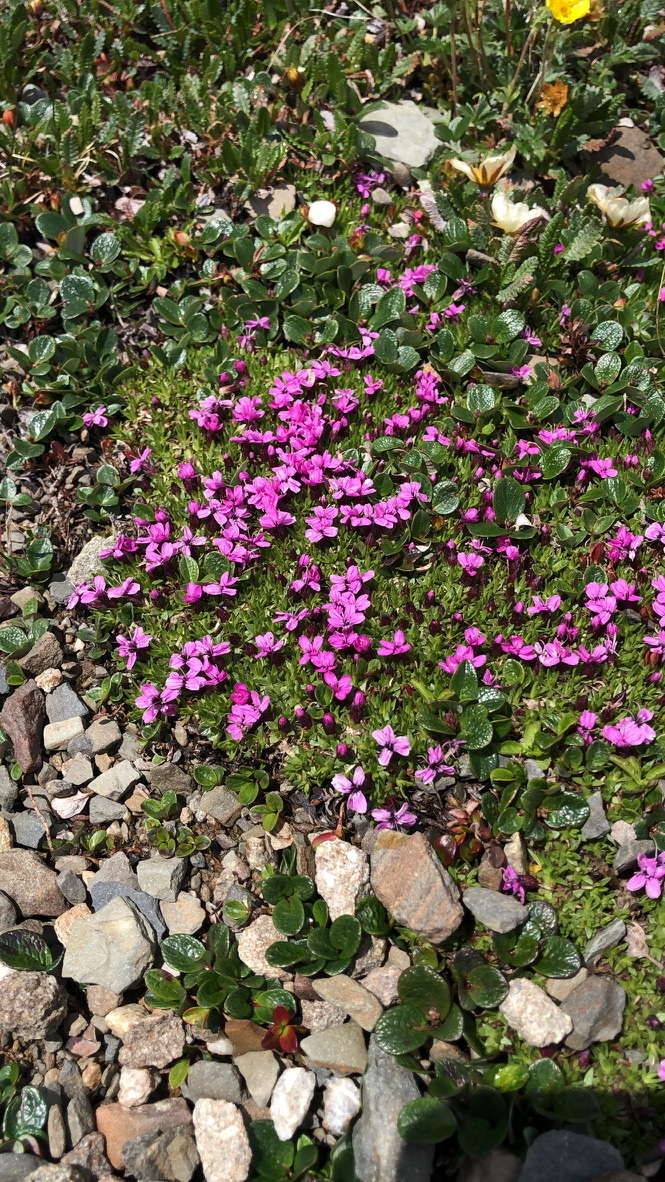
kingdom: Plantae
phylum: Tracheophyta
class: Magnoliopsida
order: Caryophyllales
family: Caryophyllaceae
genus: Silene
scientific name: Silene acaulis
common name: Moss campion
